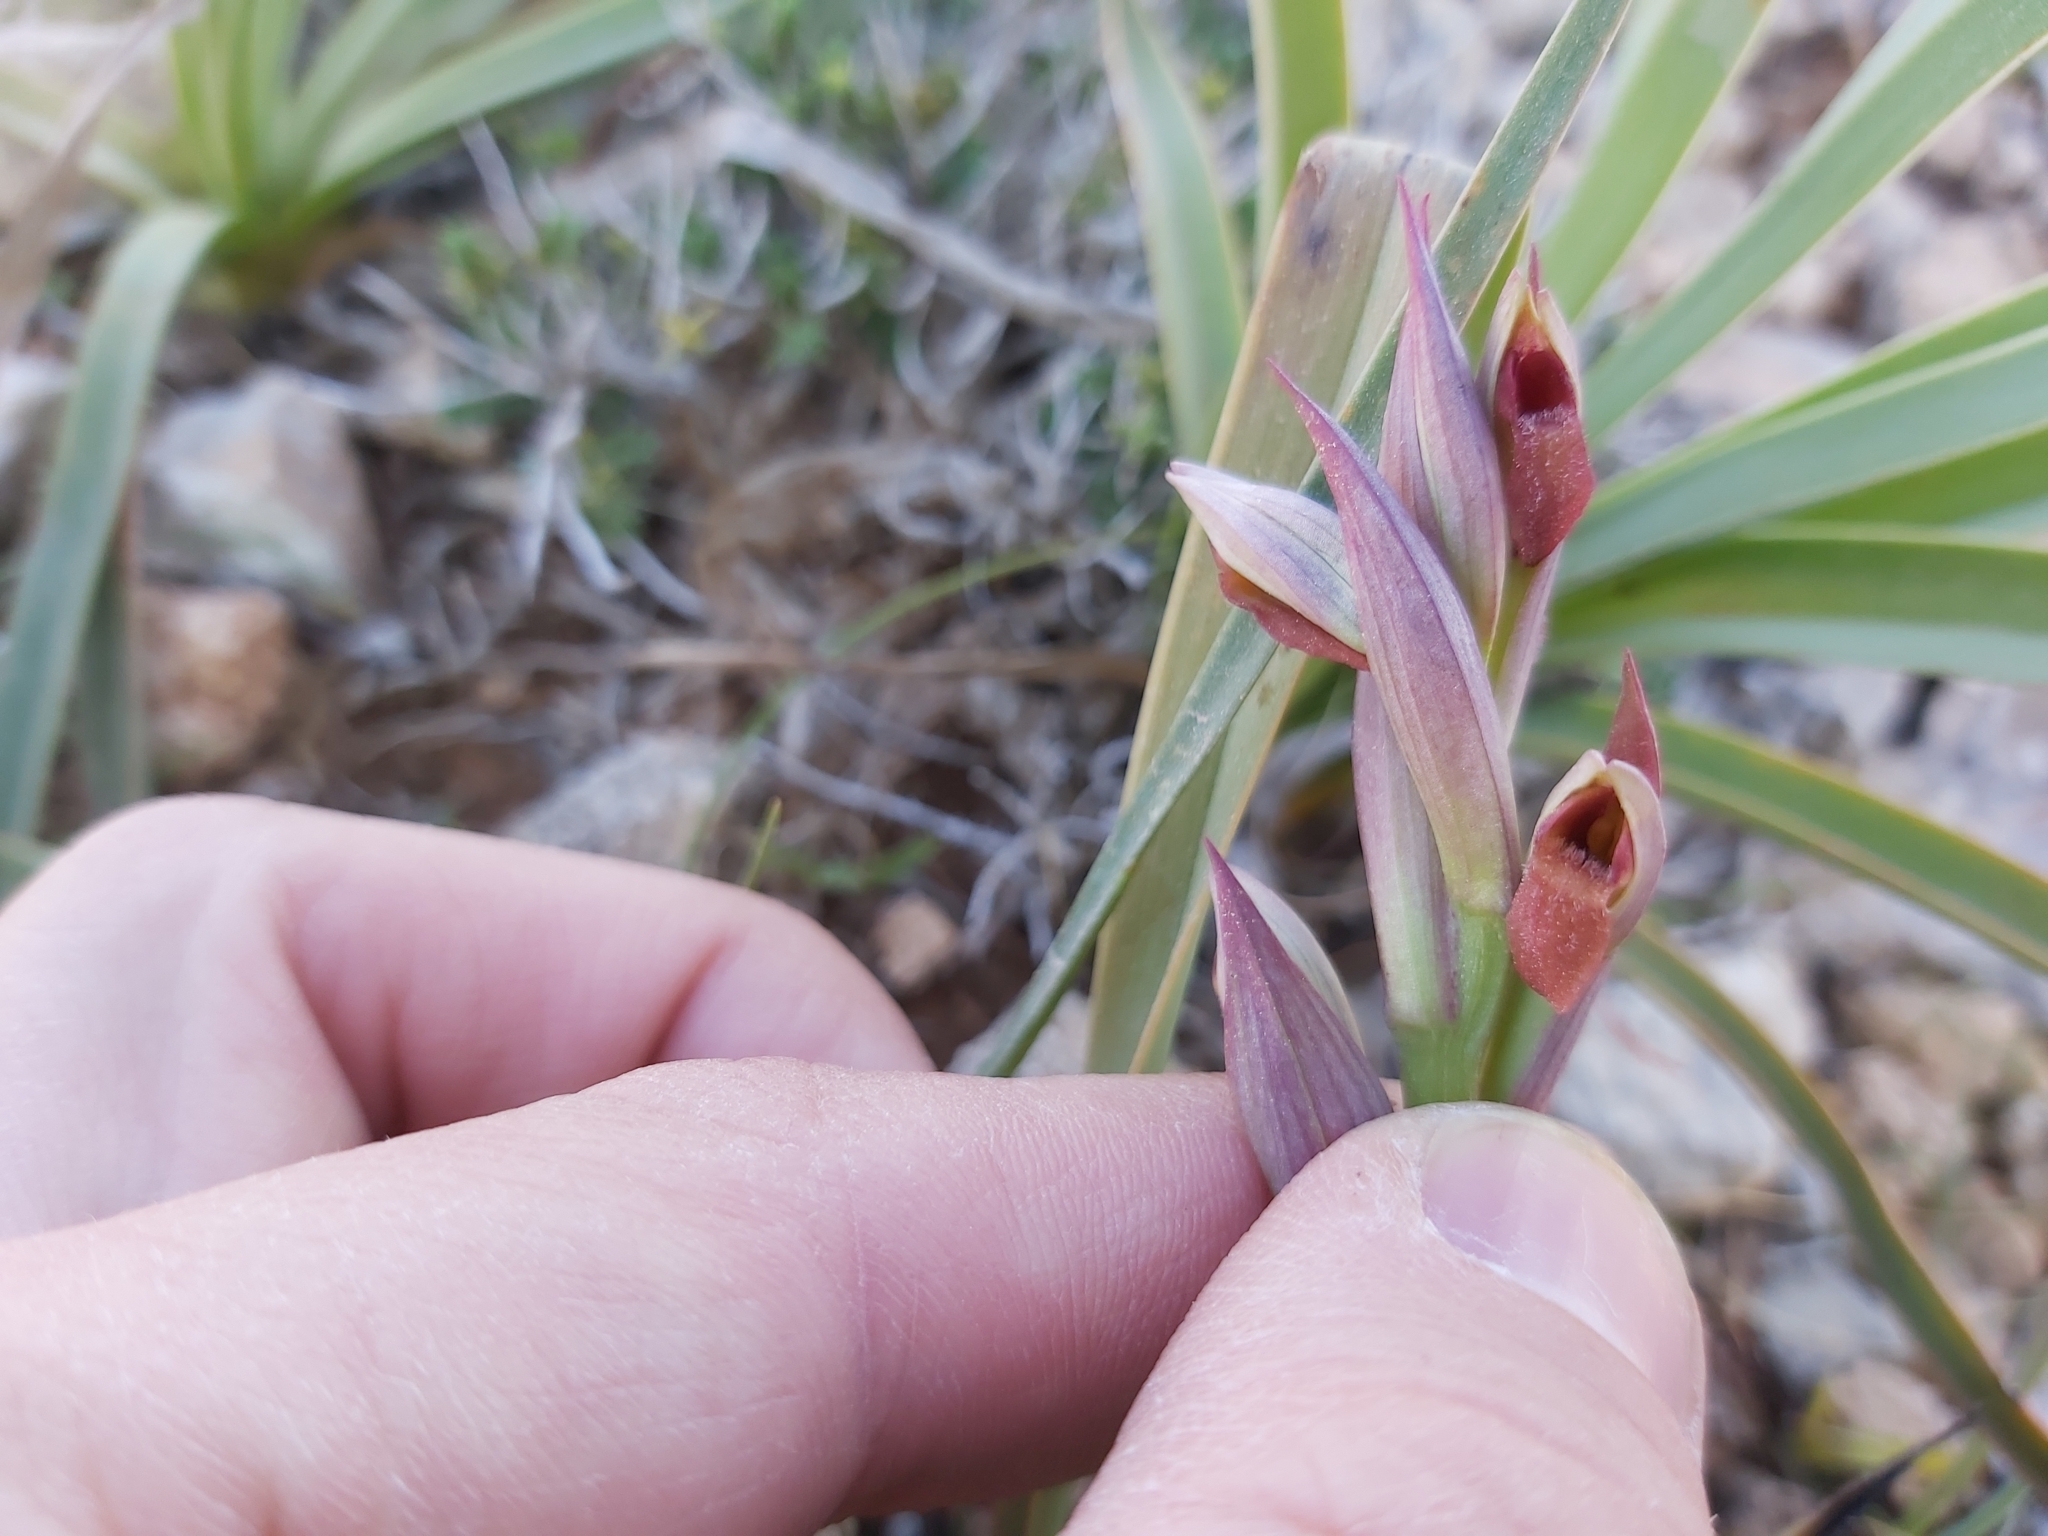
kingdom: Plantae
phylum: Tracheophyta
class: Liliopsida
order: Asparagales
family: Orchidaceae
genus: Serapias
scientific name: Serapias parviflora
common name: Small-flowered tongue-orchid
